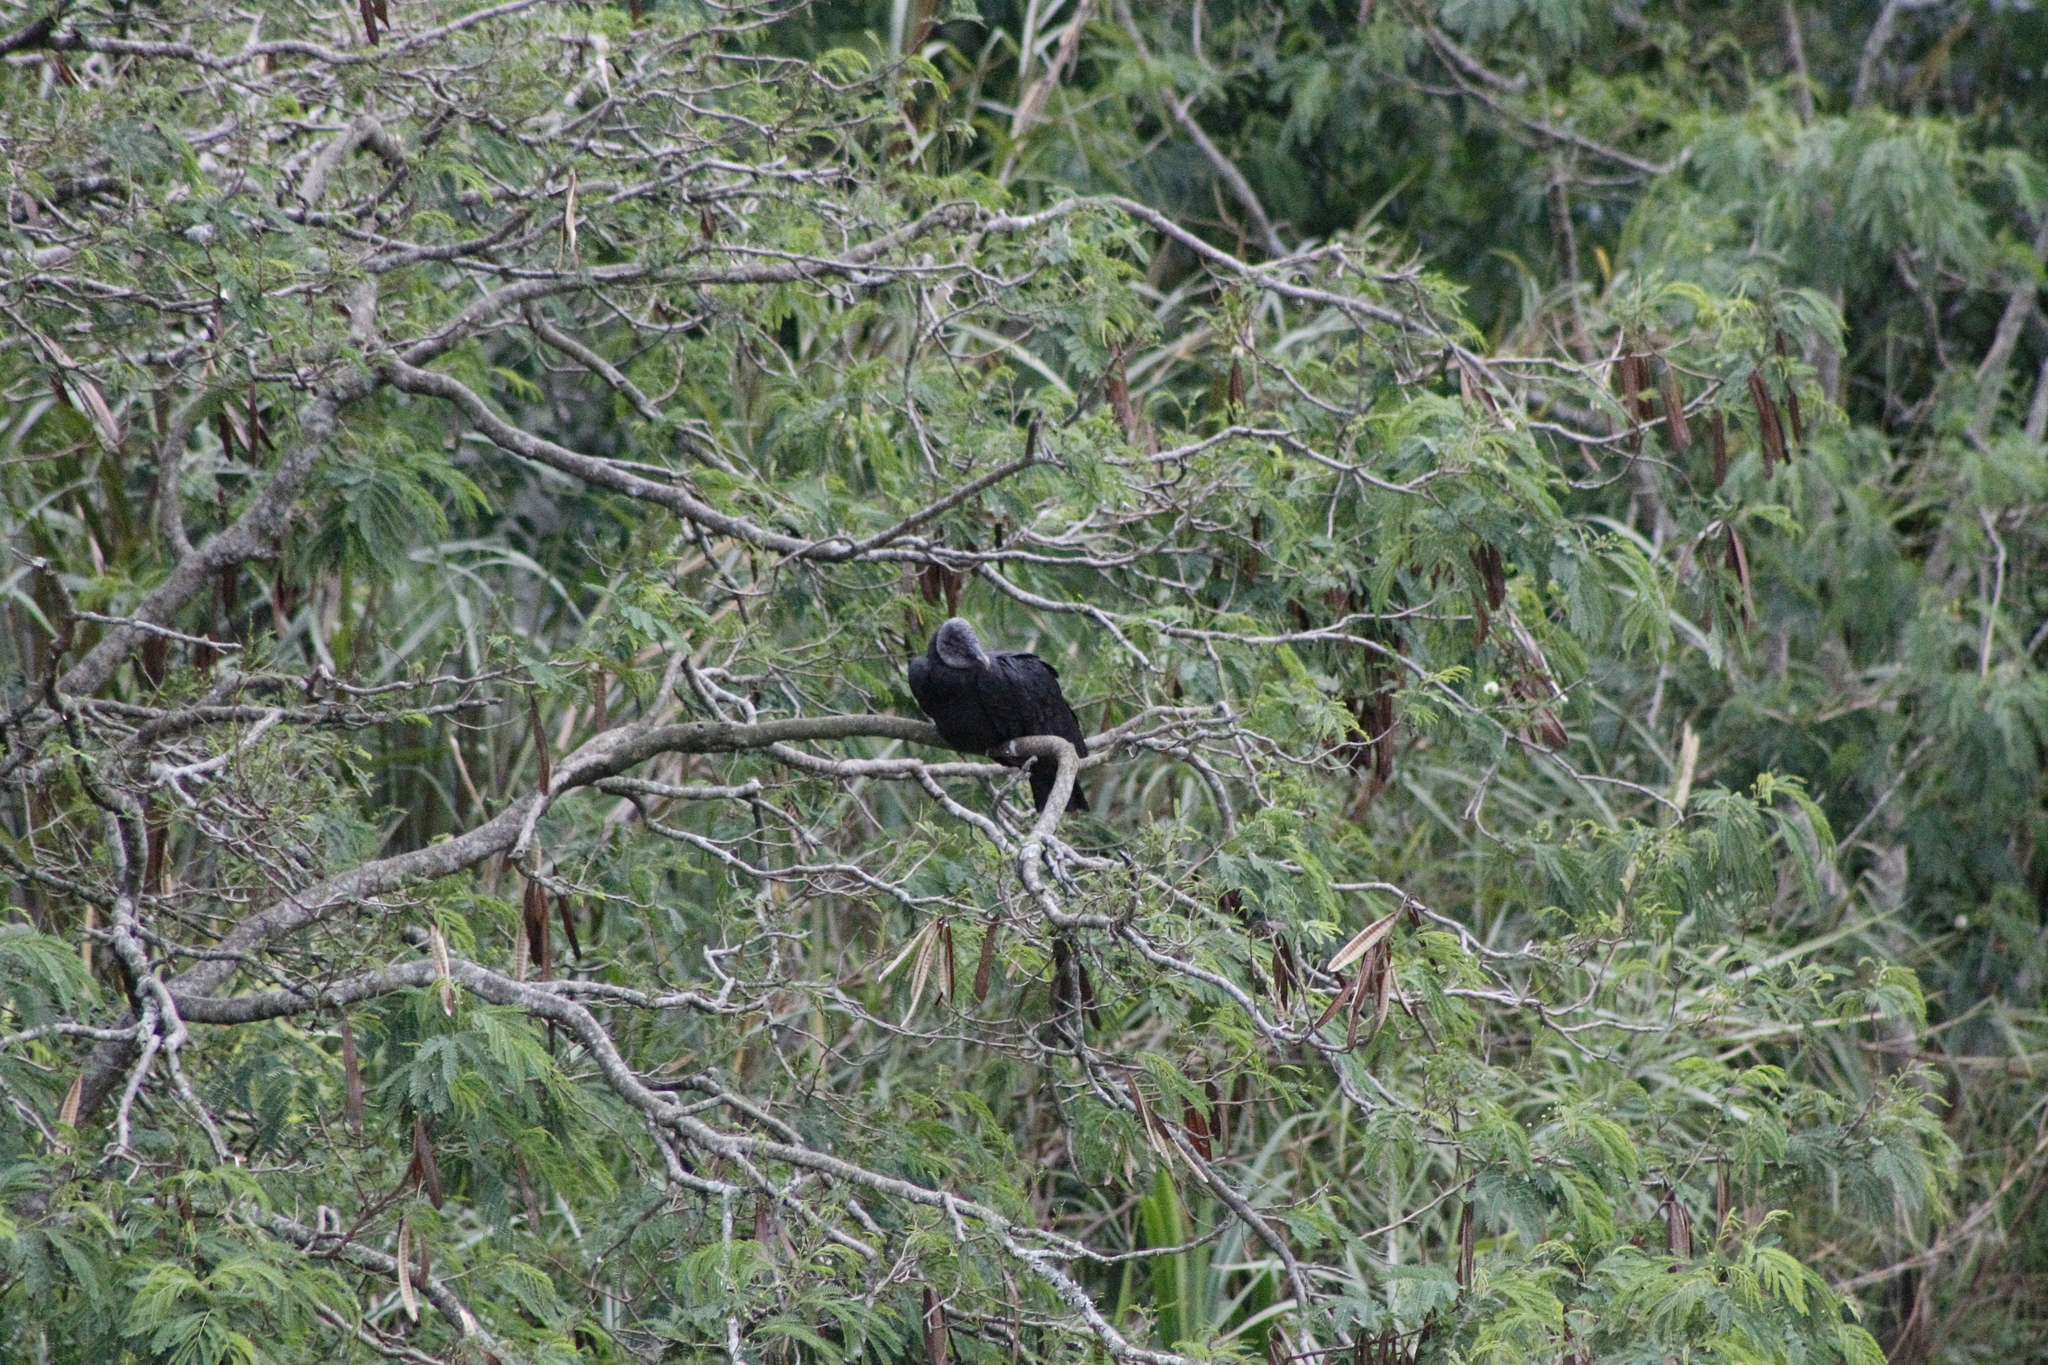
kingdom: Animalia
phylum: Chordata
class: Aves
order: Accipitriformes
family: Cathartidae
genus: Coragyps
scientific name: Coragyps atratus
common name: Black vulture
